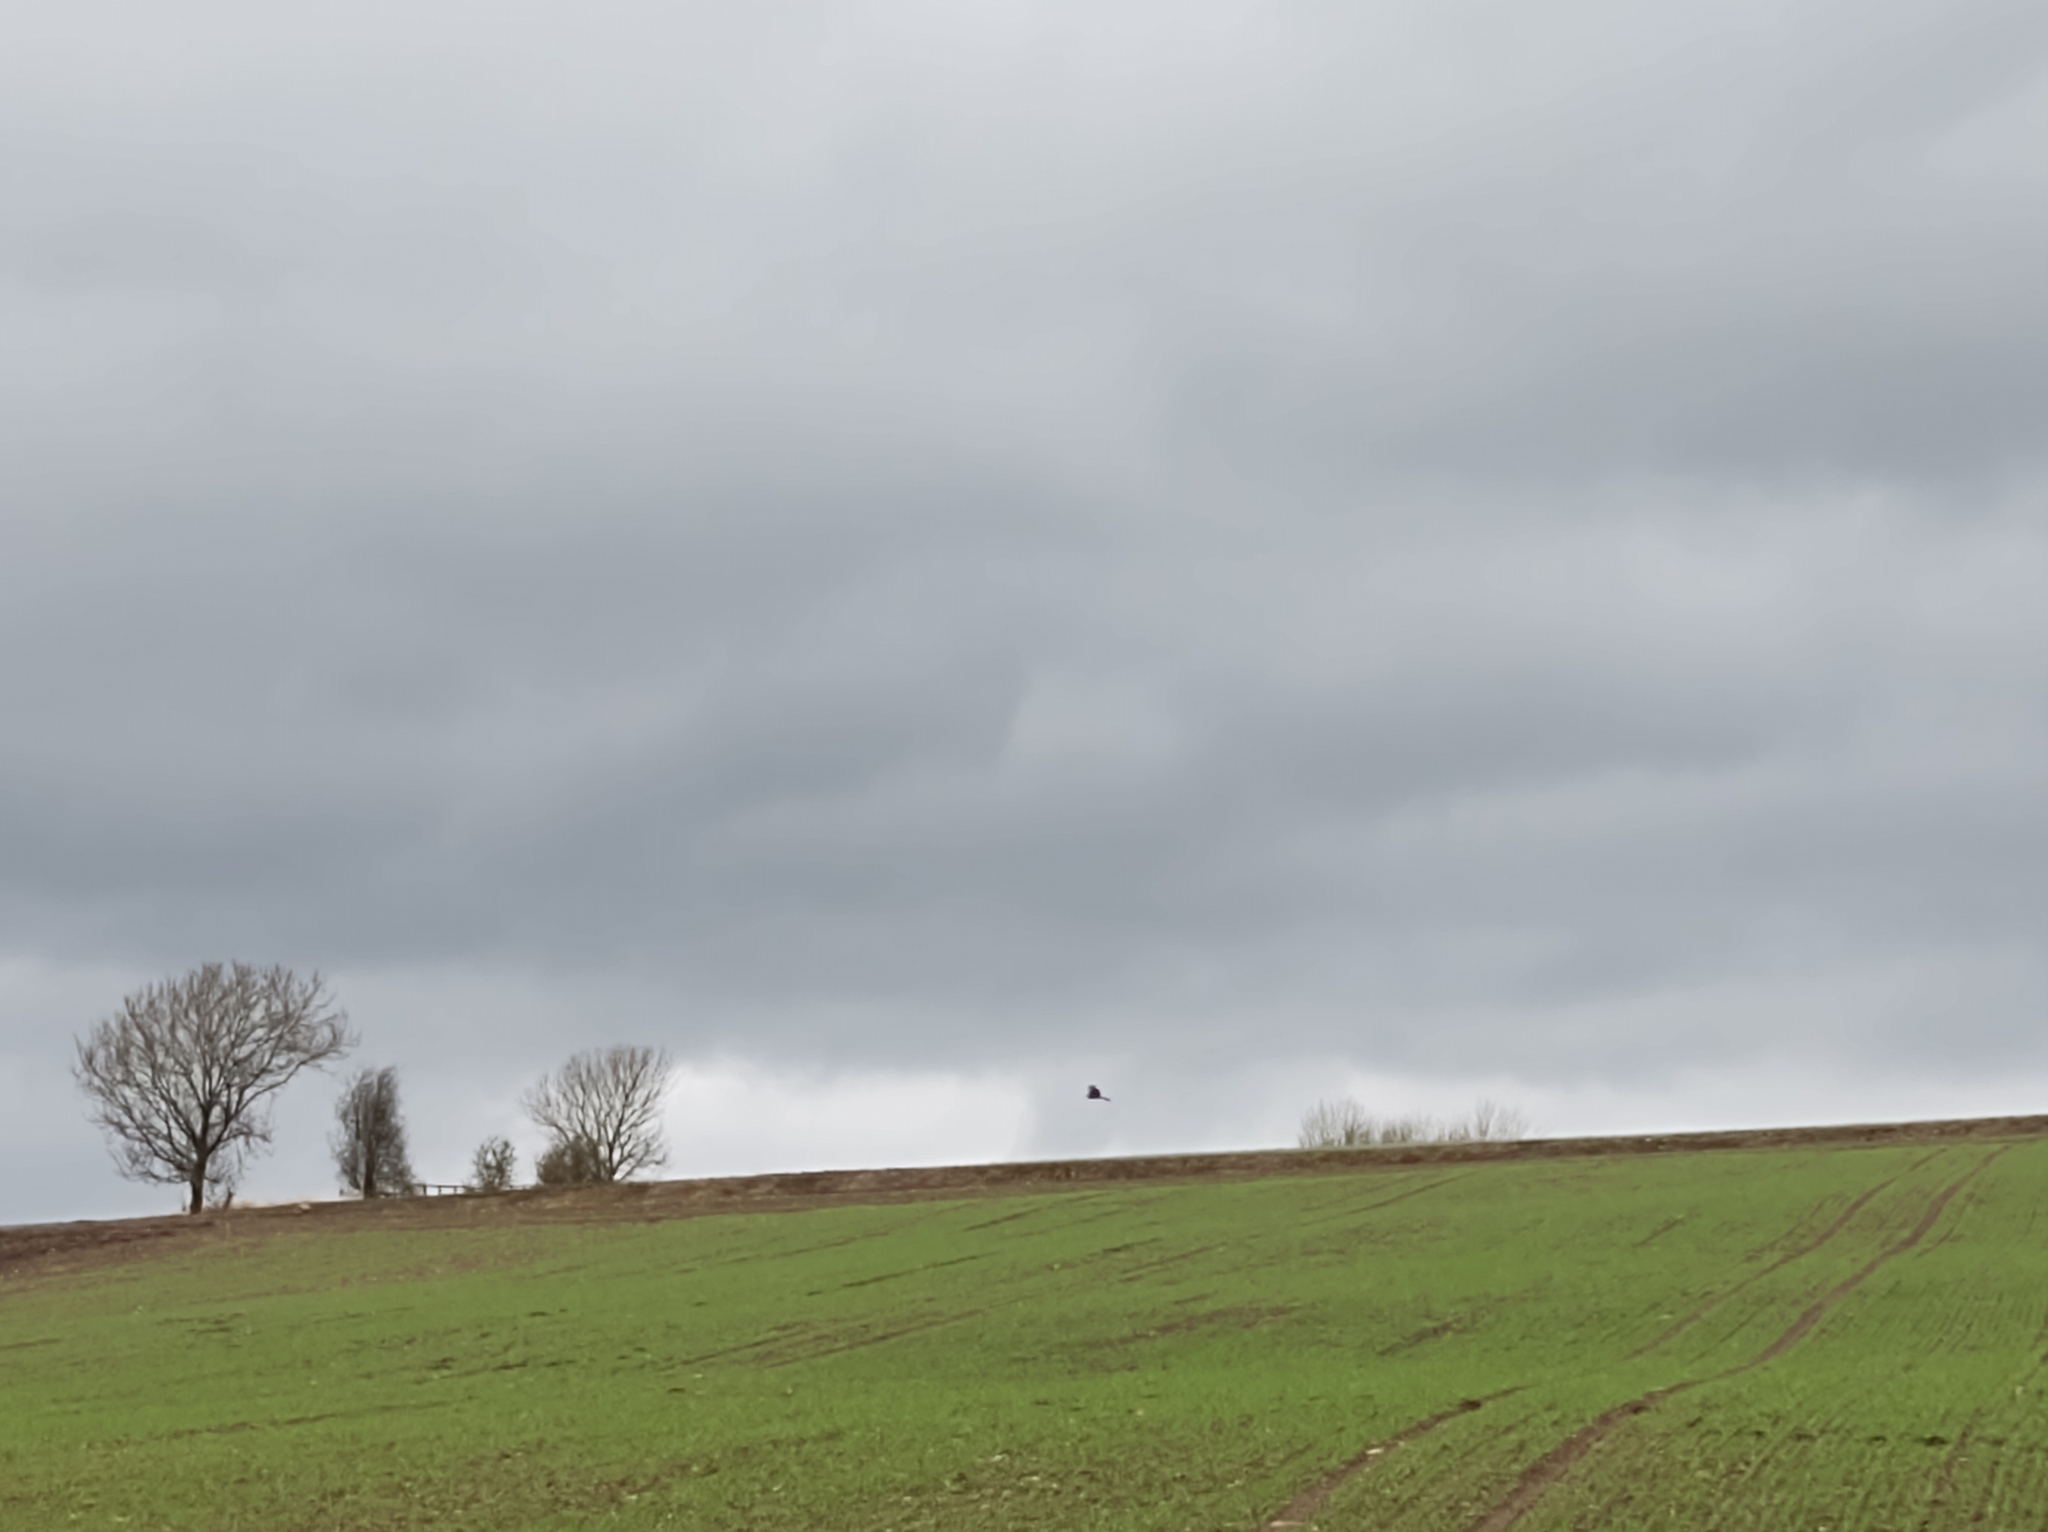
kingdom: Animalia
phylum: Chordata
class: Aves
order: Accipitriformes
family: Accipitridae
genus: Milvus
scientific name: Milvus milvus
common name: Red kite
